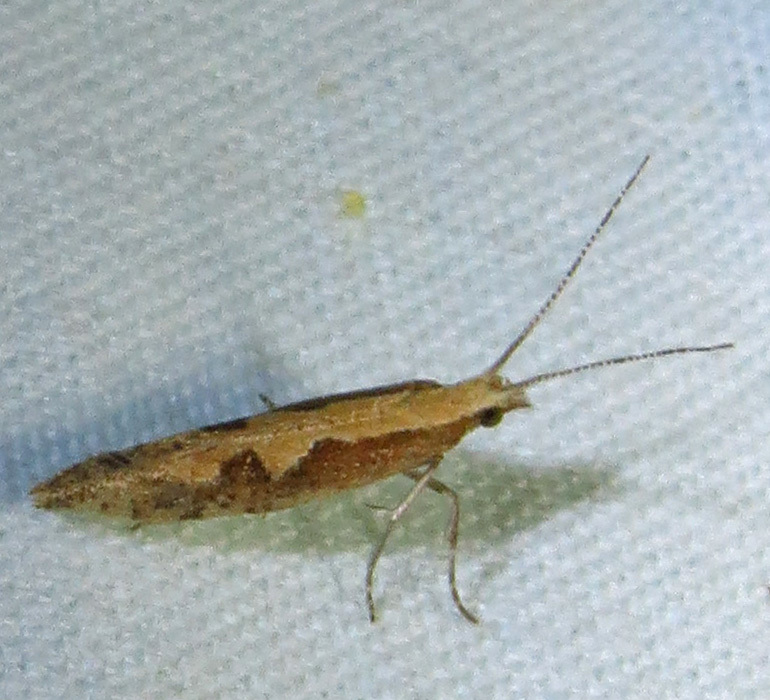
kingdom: Animalia
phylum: Arthropoda
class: Insecta
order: Lepidoptera
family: Plutellidae
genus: Plutella
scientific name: Plutella xylostella
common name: Diamond-back moth
